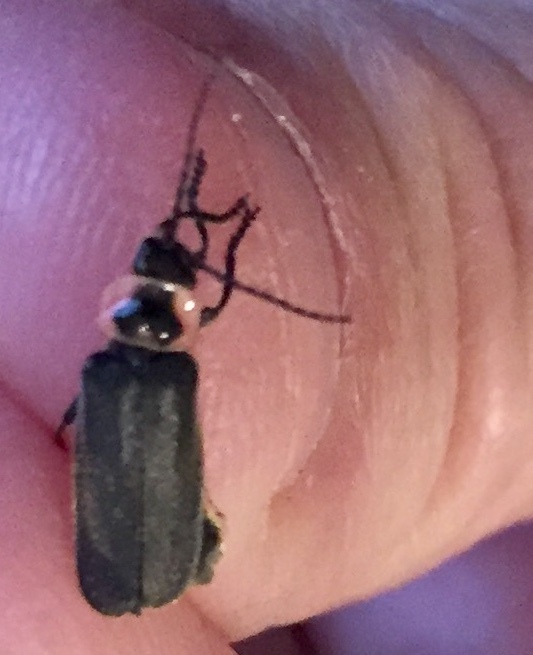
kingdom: Animalia
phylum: Arthropoda
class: Insecta
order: Coleoptera
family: Cantharidae
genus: Atalantycha
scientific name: Atalantycha neglecta
